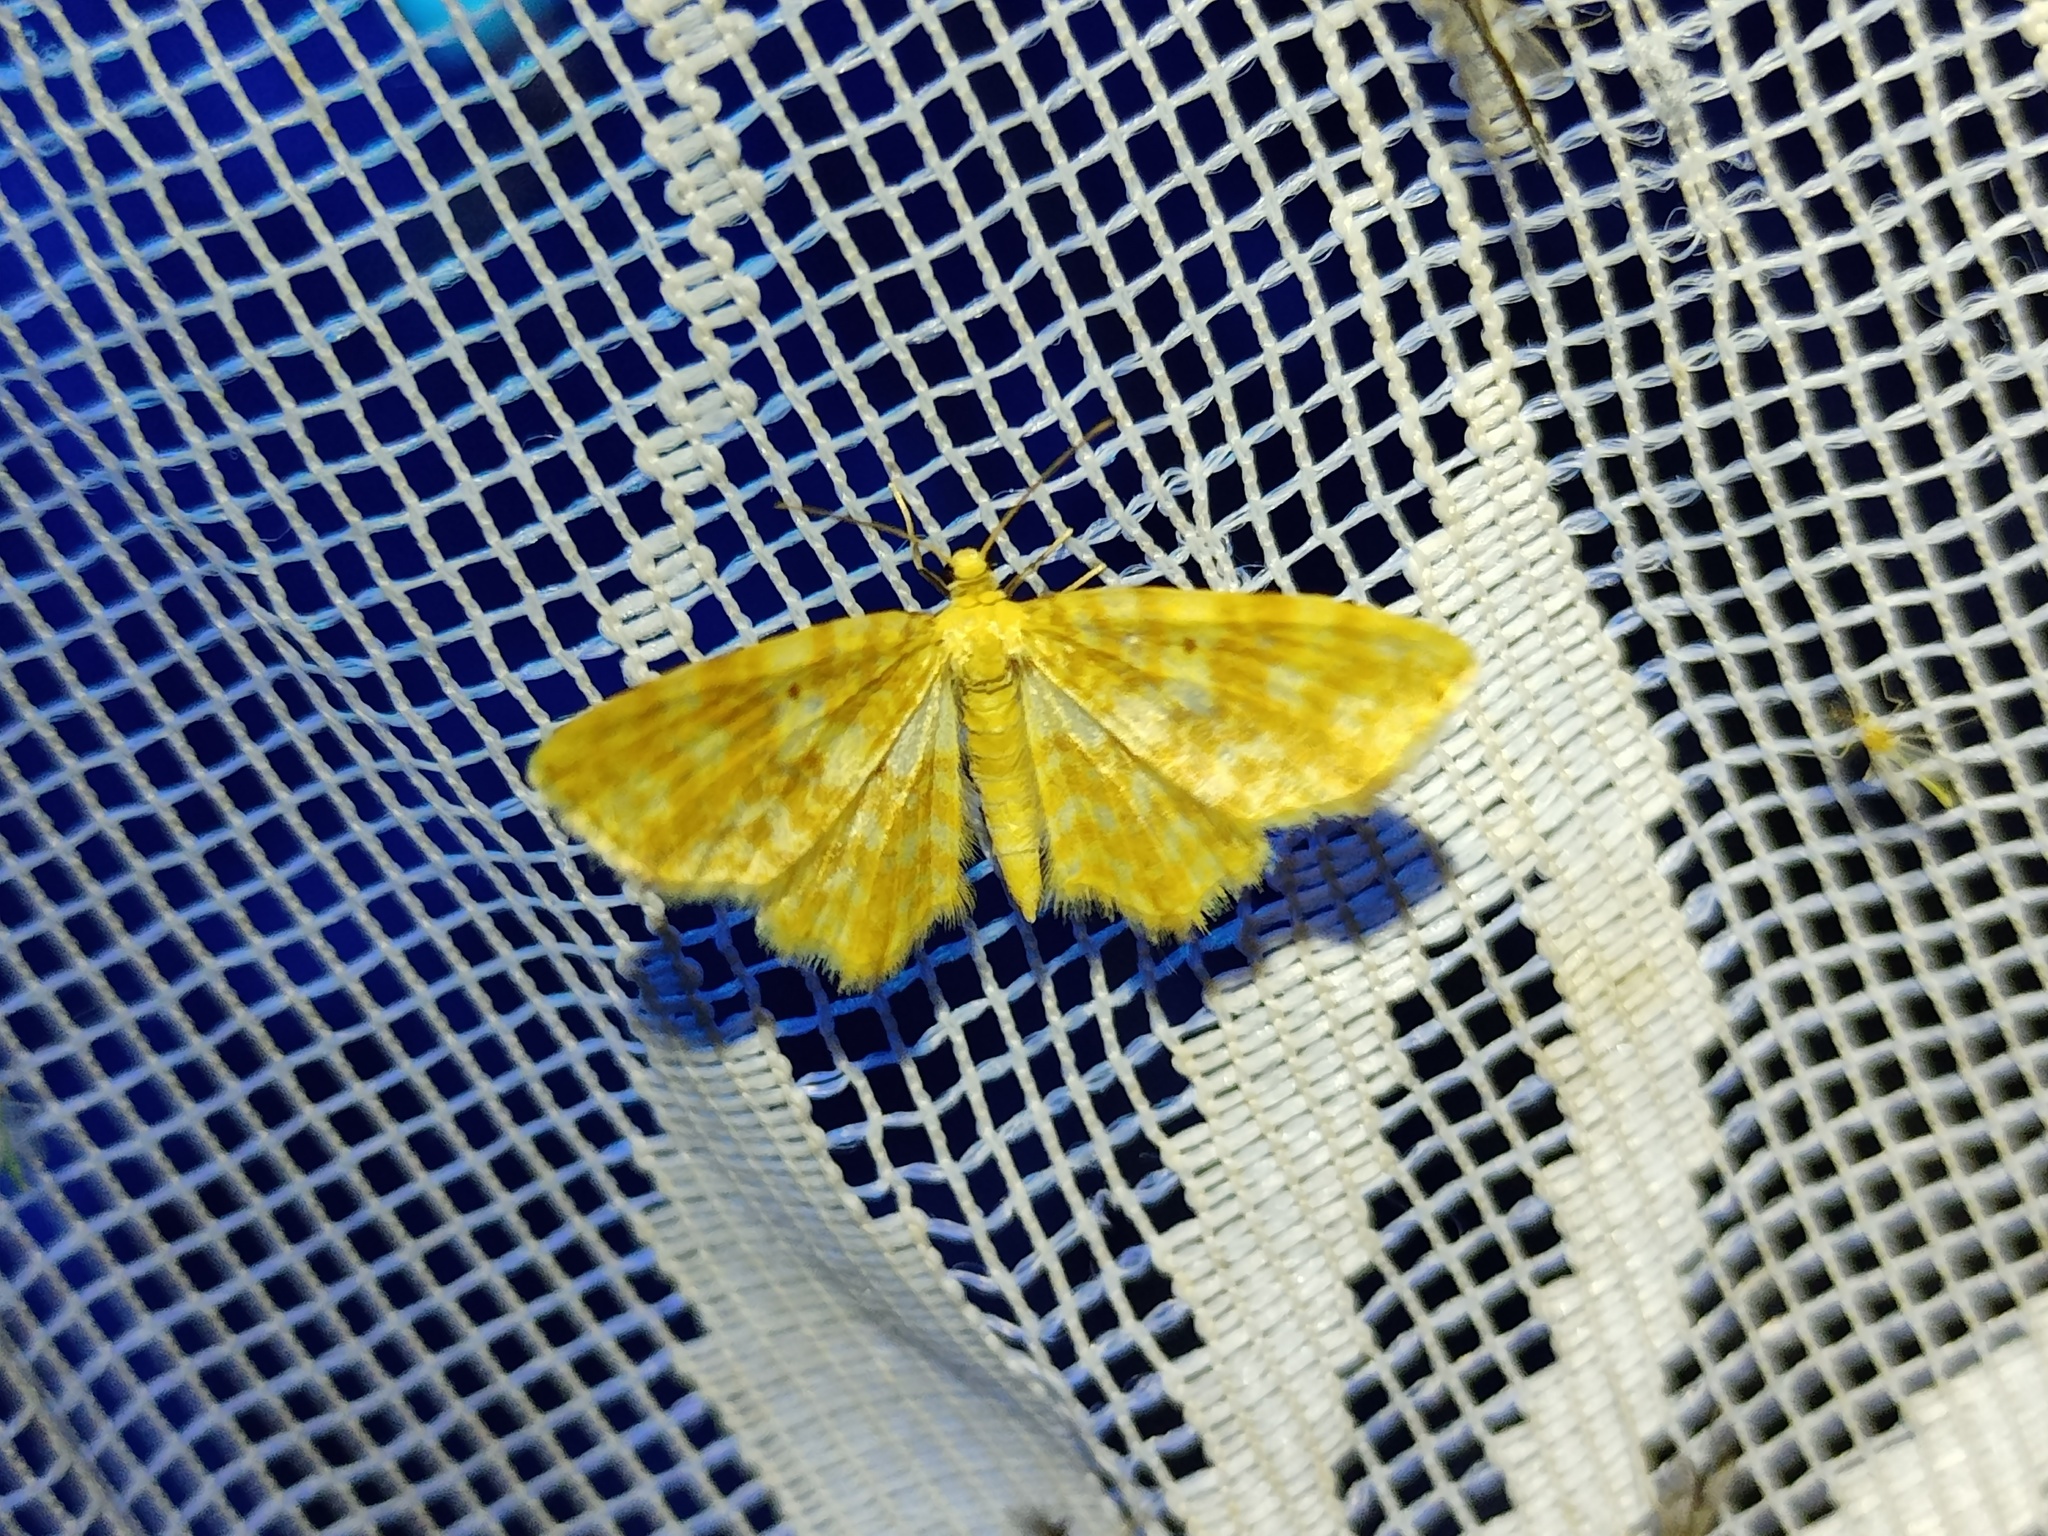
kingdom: Animalia
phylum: Arthropoda
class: Insecta
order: Lepidoptera
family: Geometridae
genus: Hydrelia
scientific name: Hydrelia flammeolaria
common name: Small yellow wave
